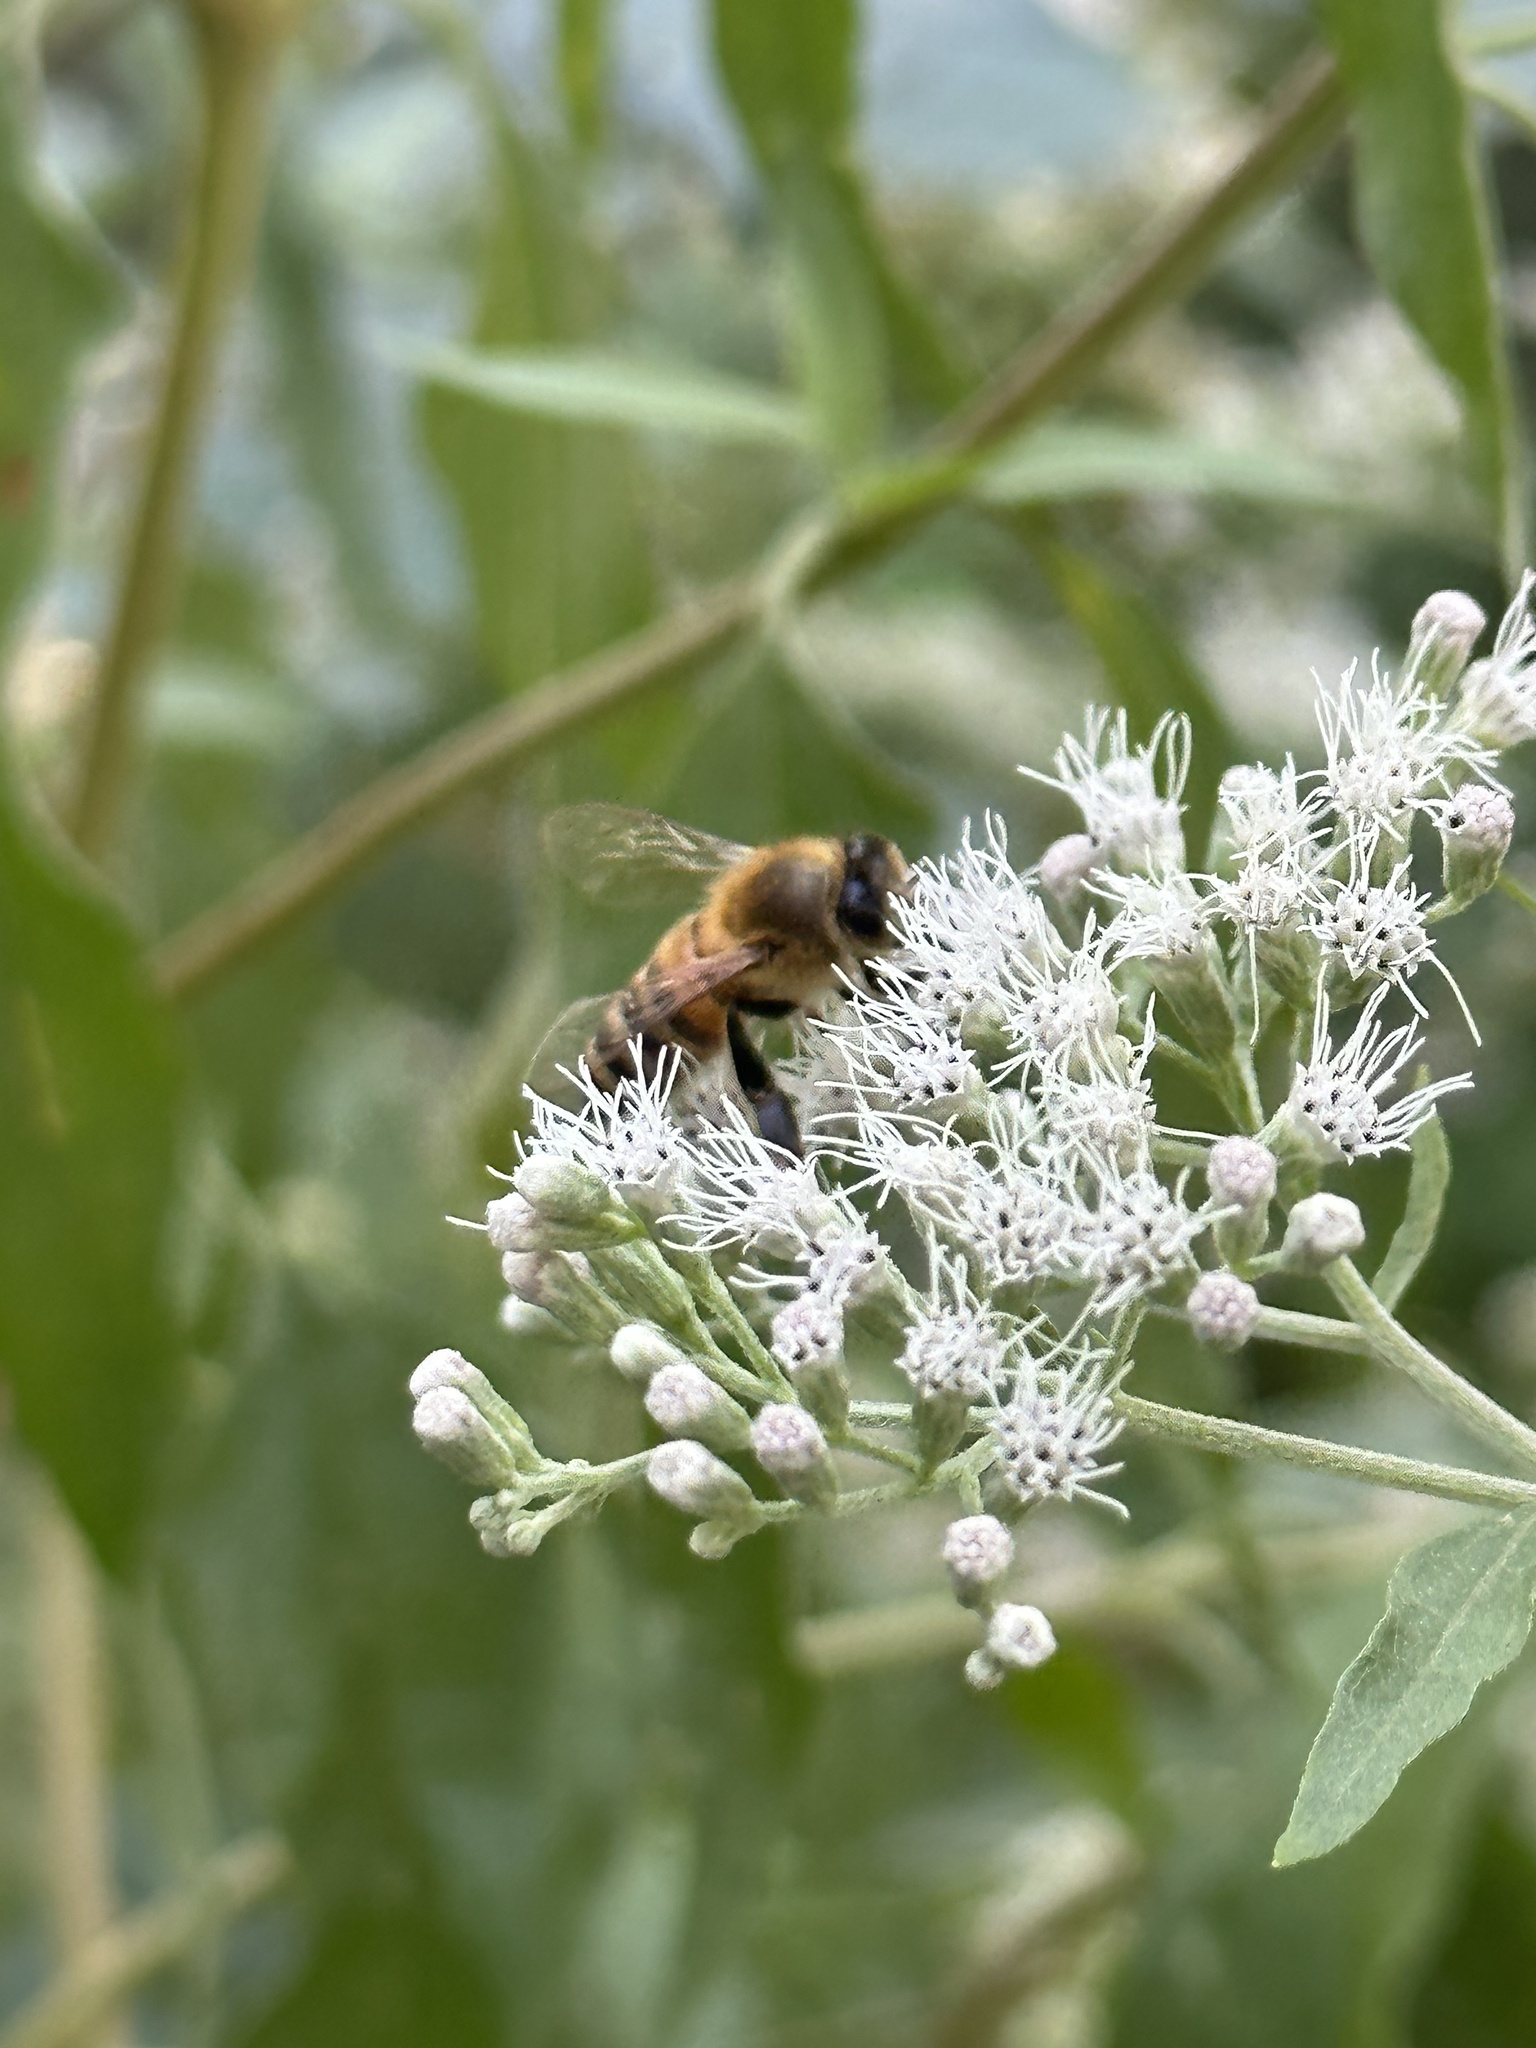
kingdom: Animalia
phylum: Arthropoda
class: Insecta
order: Hymenoptera
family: Apidae
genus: Apis
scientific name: Apis mellifera
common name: Honey bee
